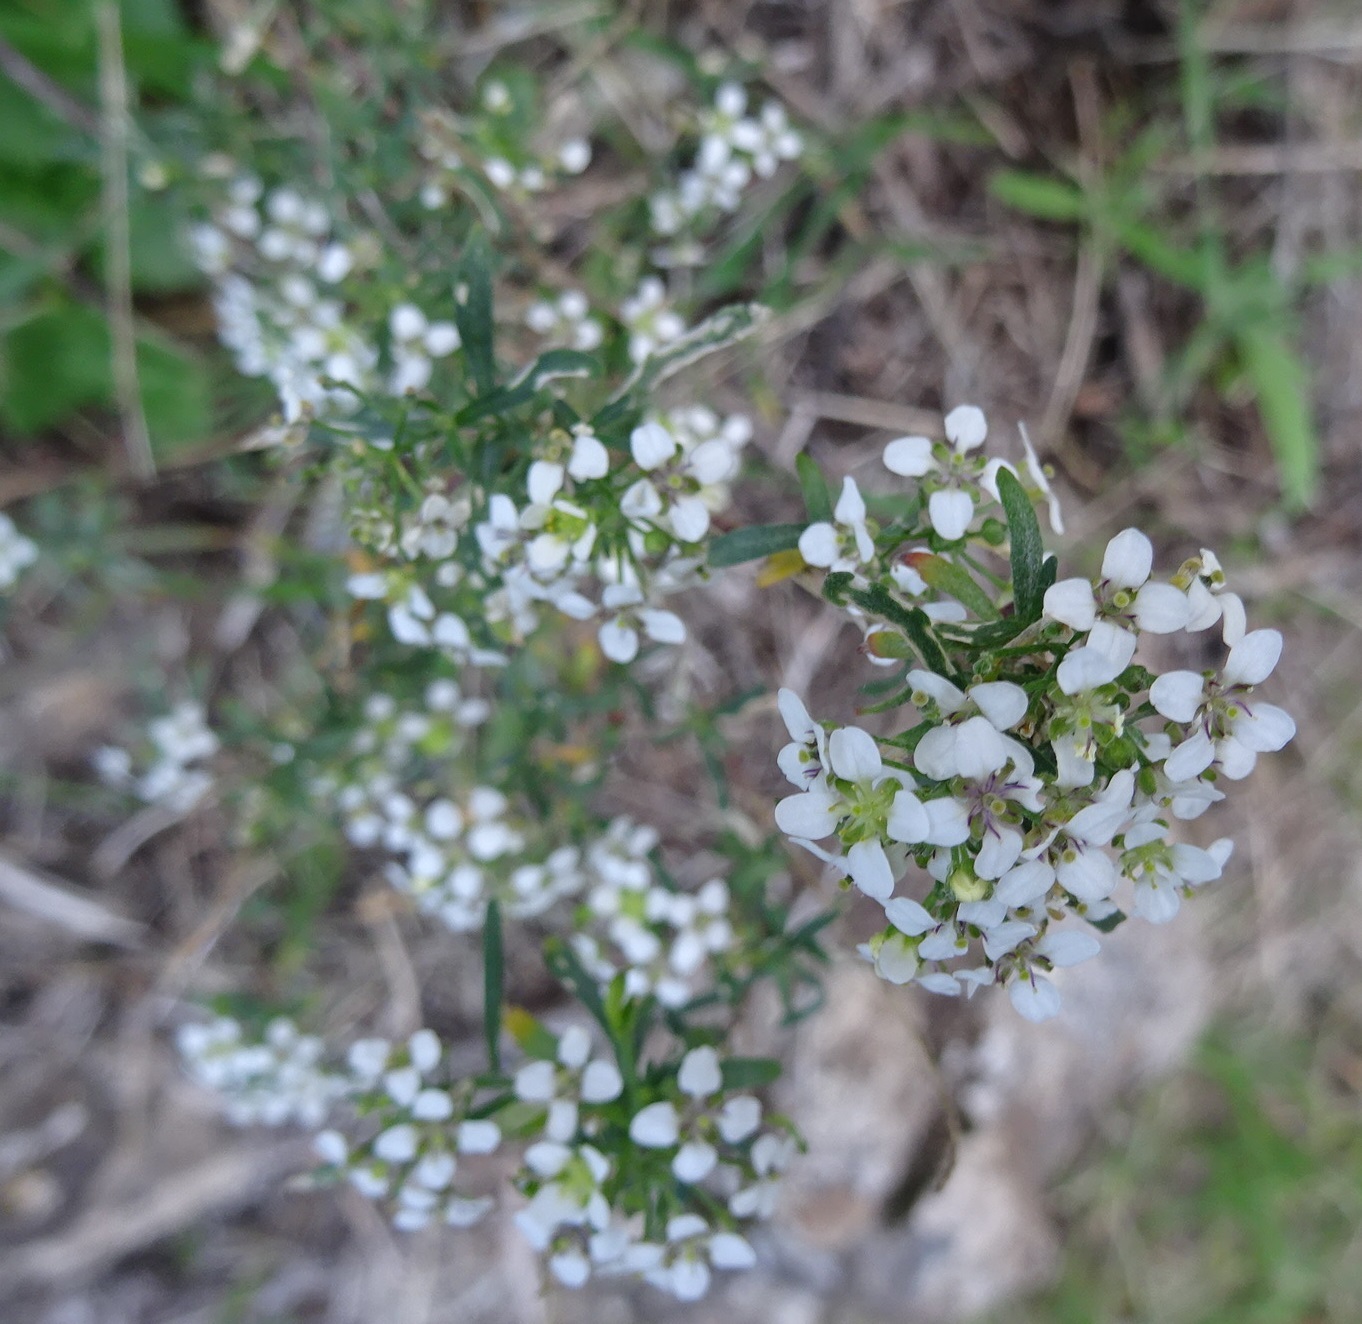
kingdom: Plantae
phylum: Tracheophyta
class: Magnoliopsida
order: Brassicales
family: Brassicaceae
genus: Lobularia
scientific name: Lobularia canariensis
